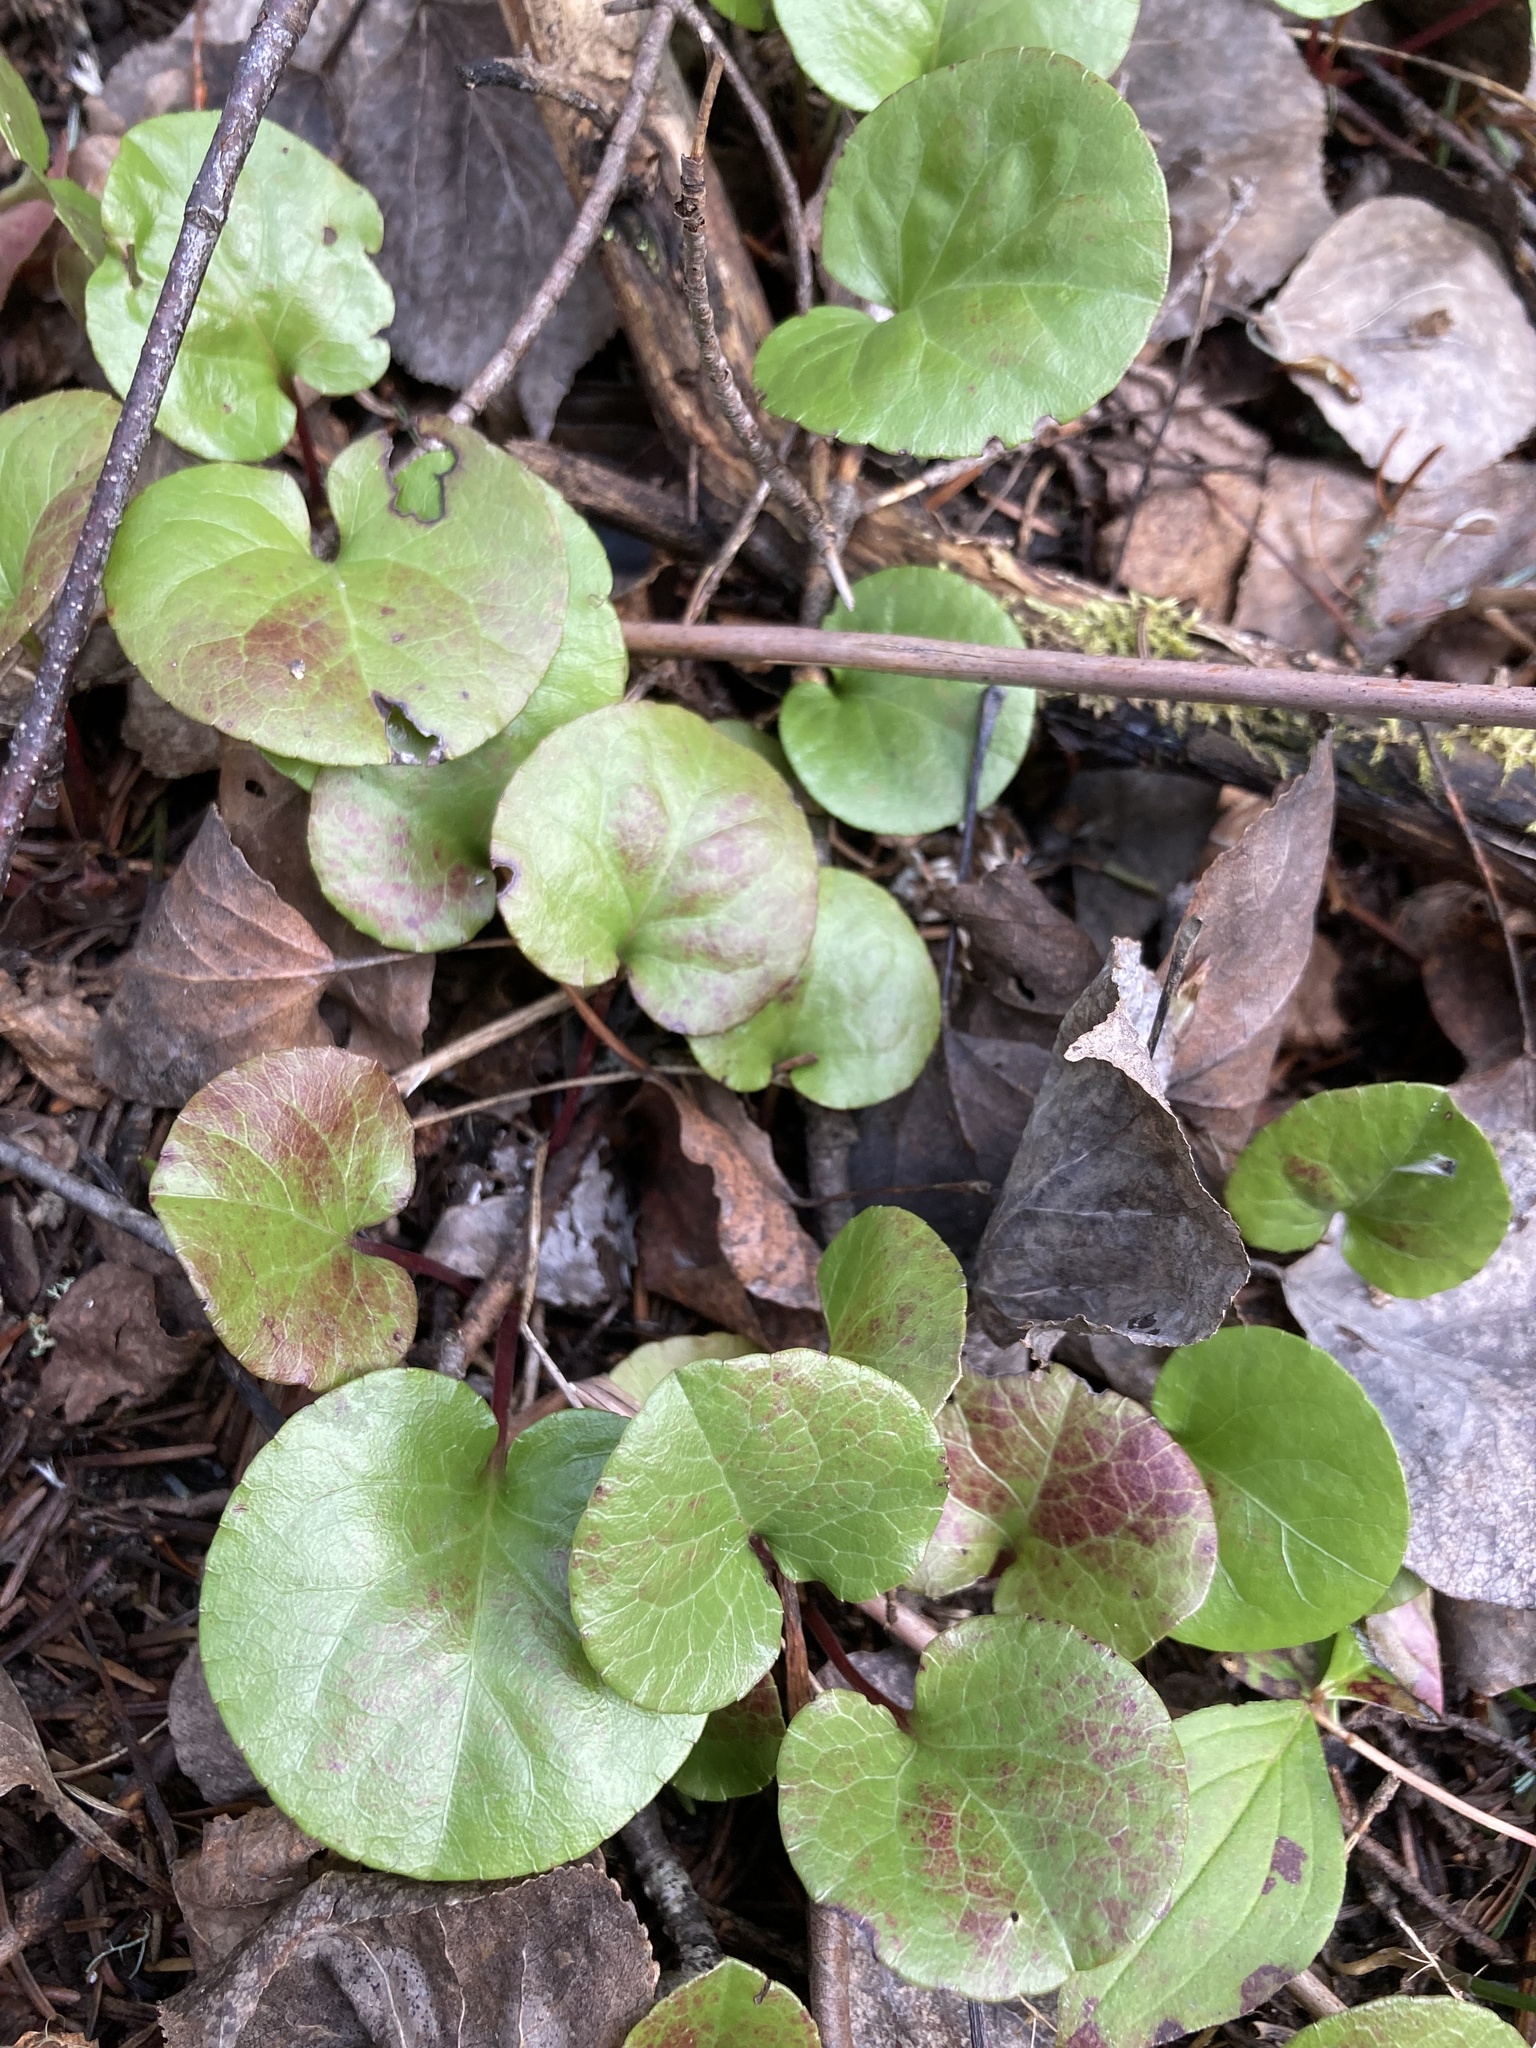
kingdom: Plantae
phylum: Tracheophyta
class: Magnoliopsida
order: Ericales
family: Ericaceae
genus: Pyrola
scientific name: Pyrola asarifolia
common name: Bog wintergreen
